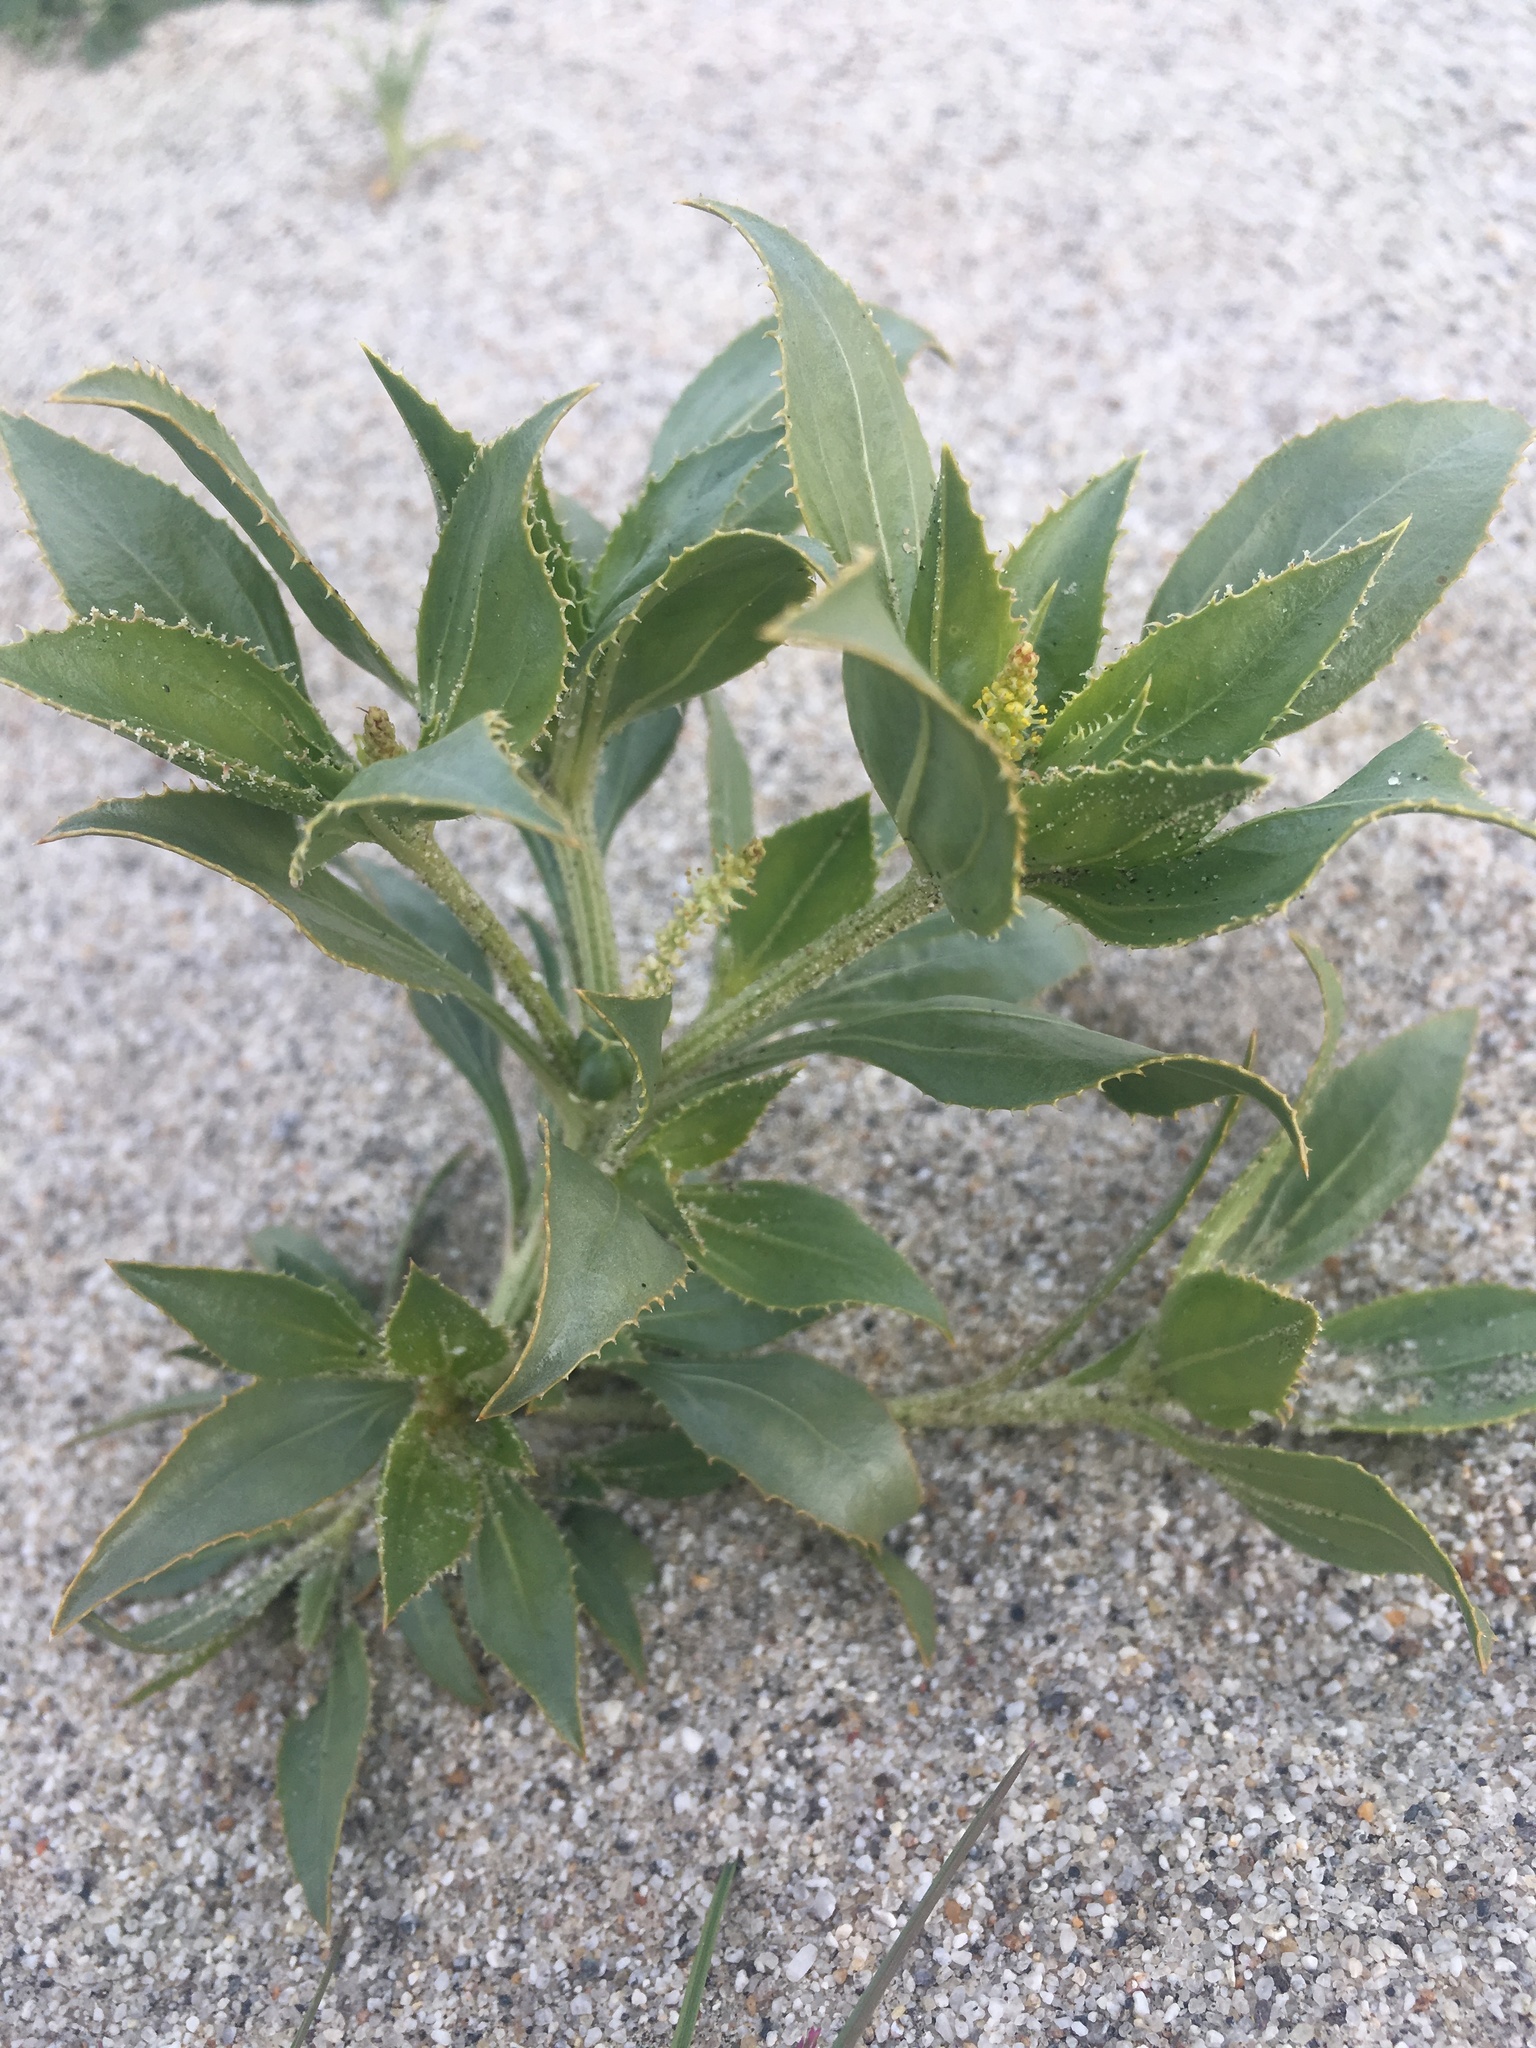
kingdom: Plantae
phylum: Tracheophyta
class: Magnoliopsida
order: Malpighiales
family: Euphorbiaceae
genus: Stillingia
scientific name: Stillingia spinulosa
